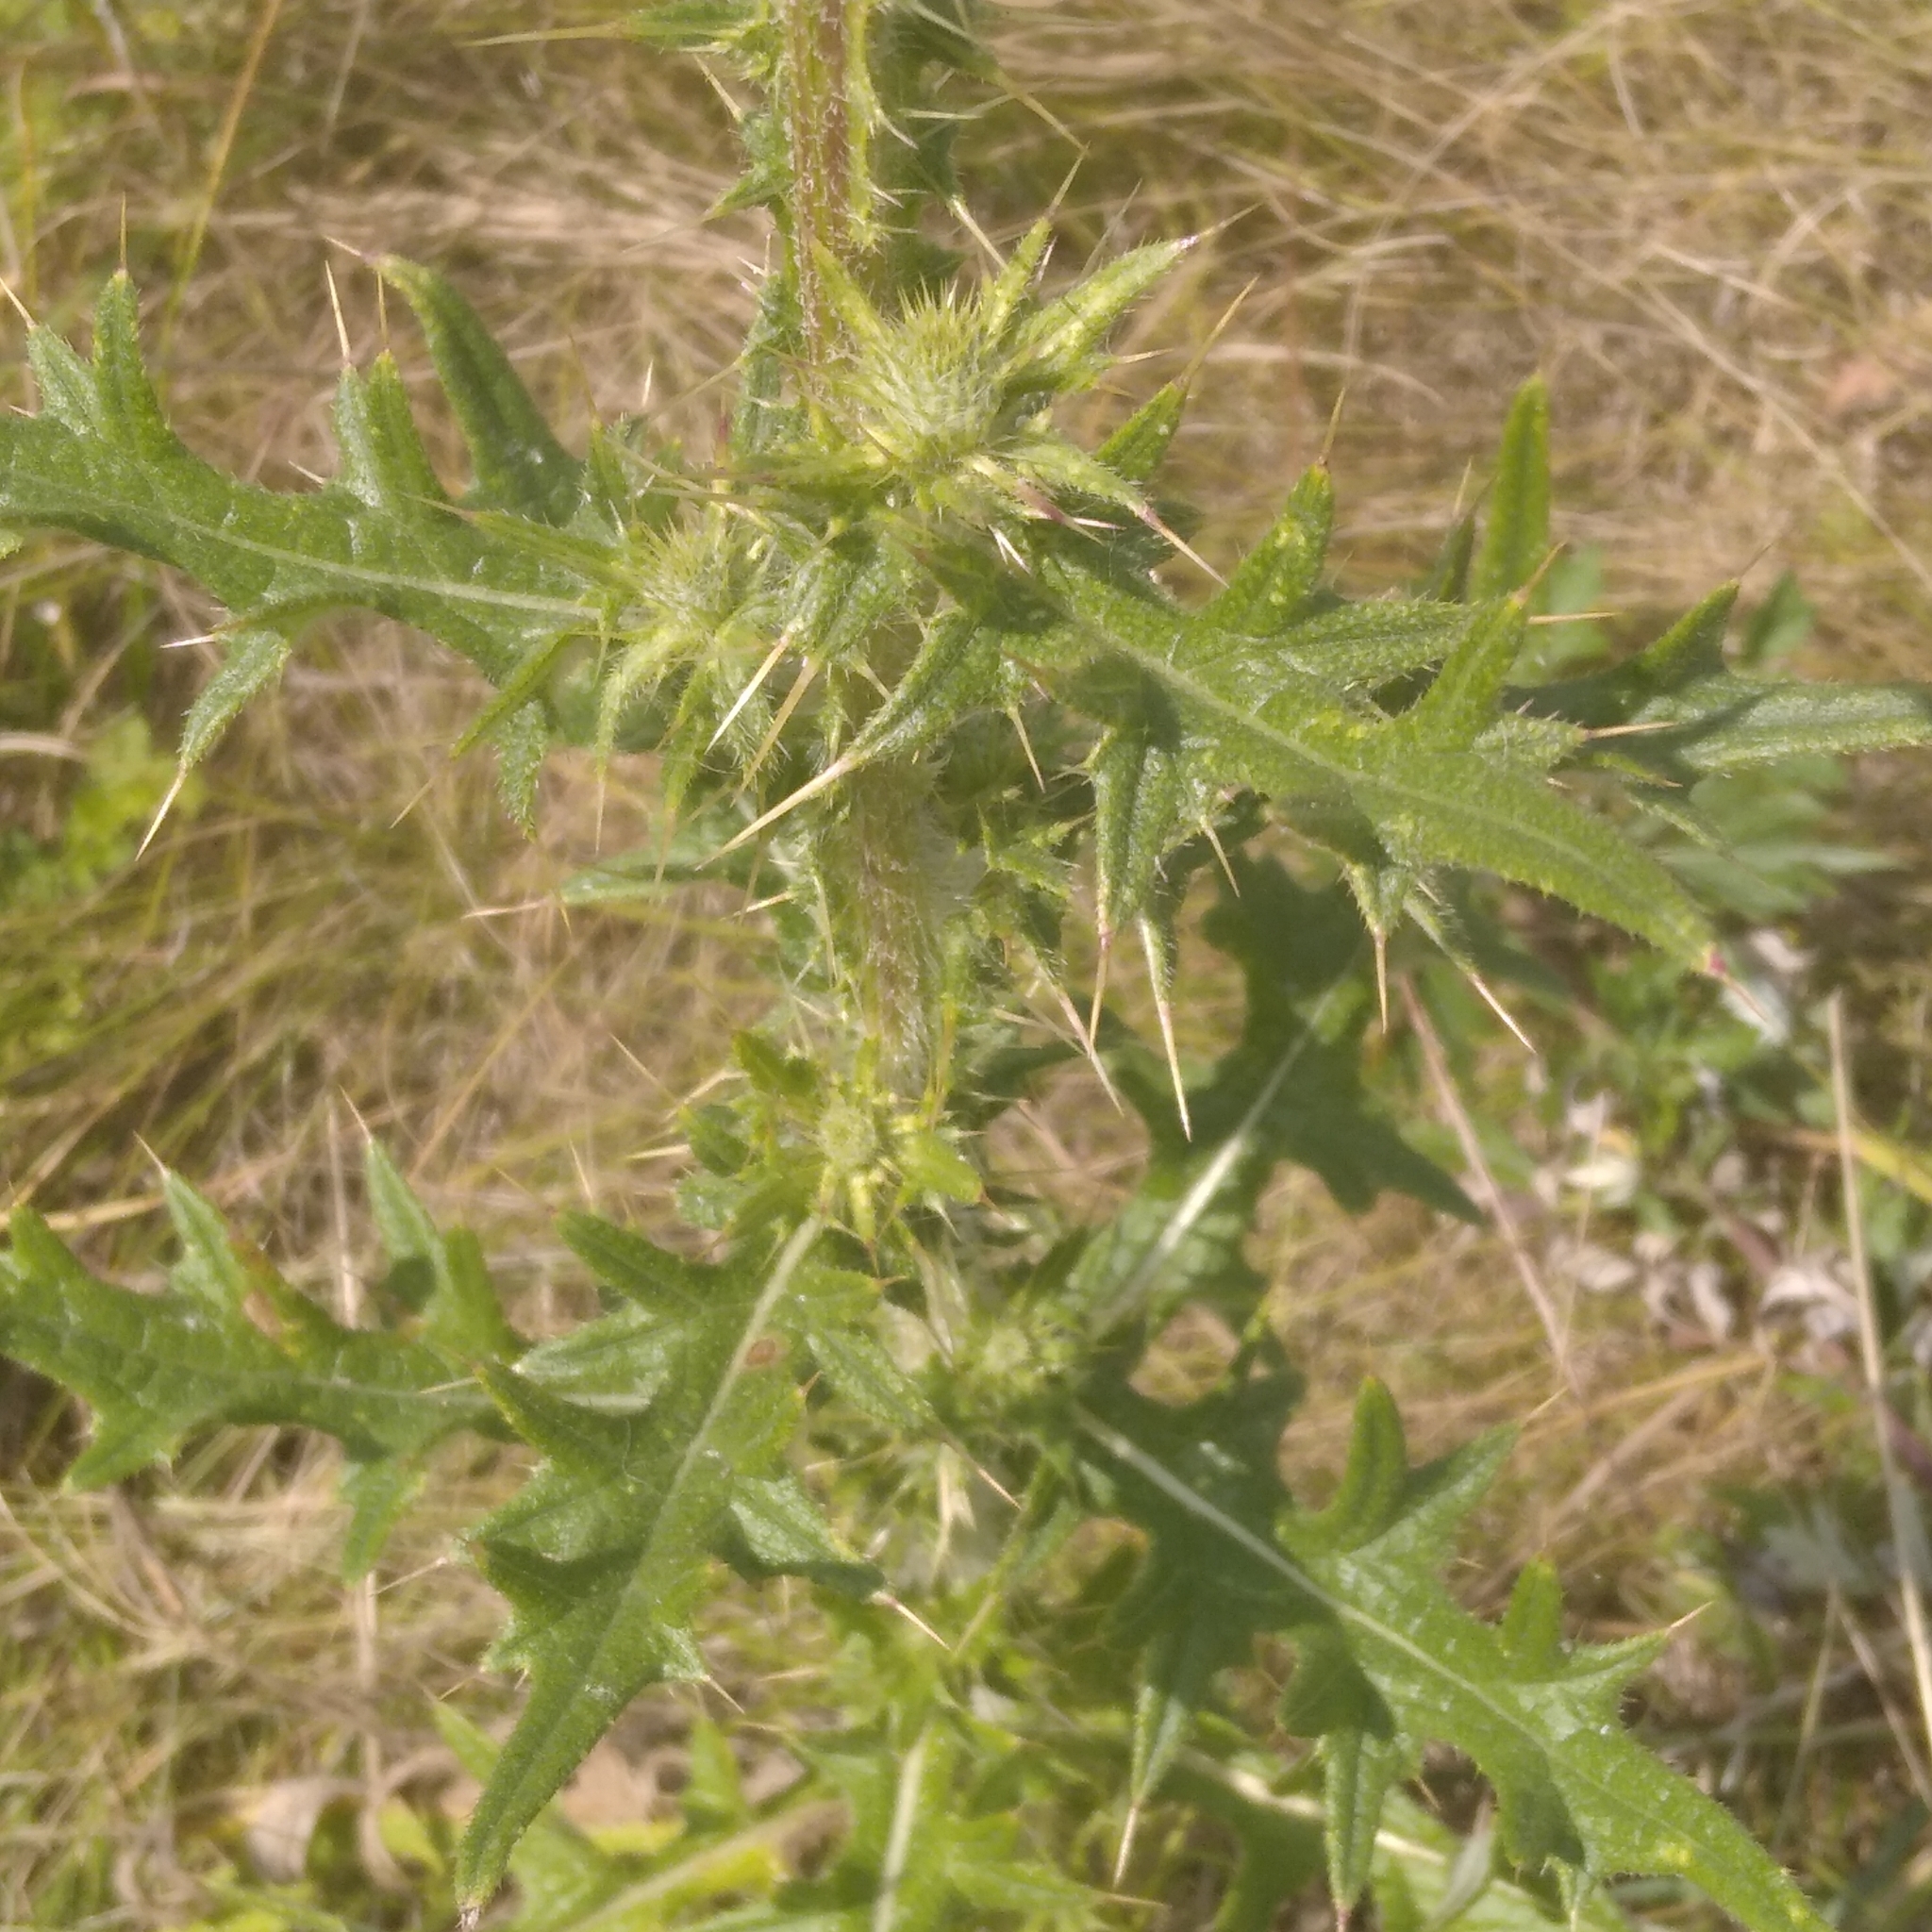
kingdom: Plantae
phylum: Tracheophyta
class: Magnoliopsida
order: Asterales
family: Asteraceae
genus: Cirsium
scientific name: Cirsium vulgare
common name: Bull thistle
